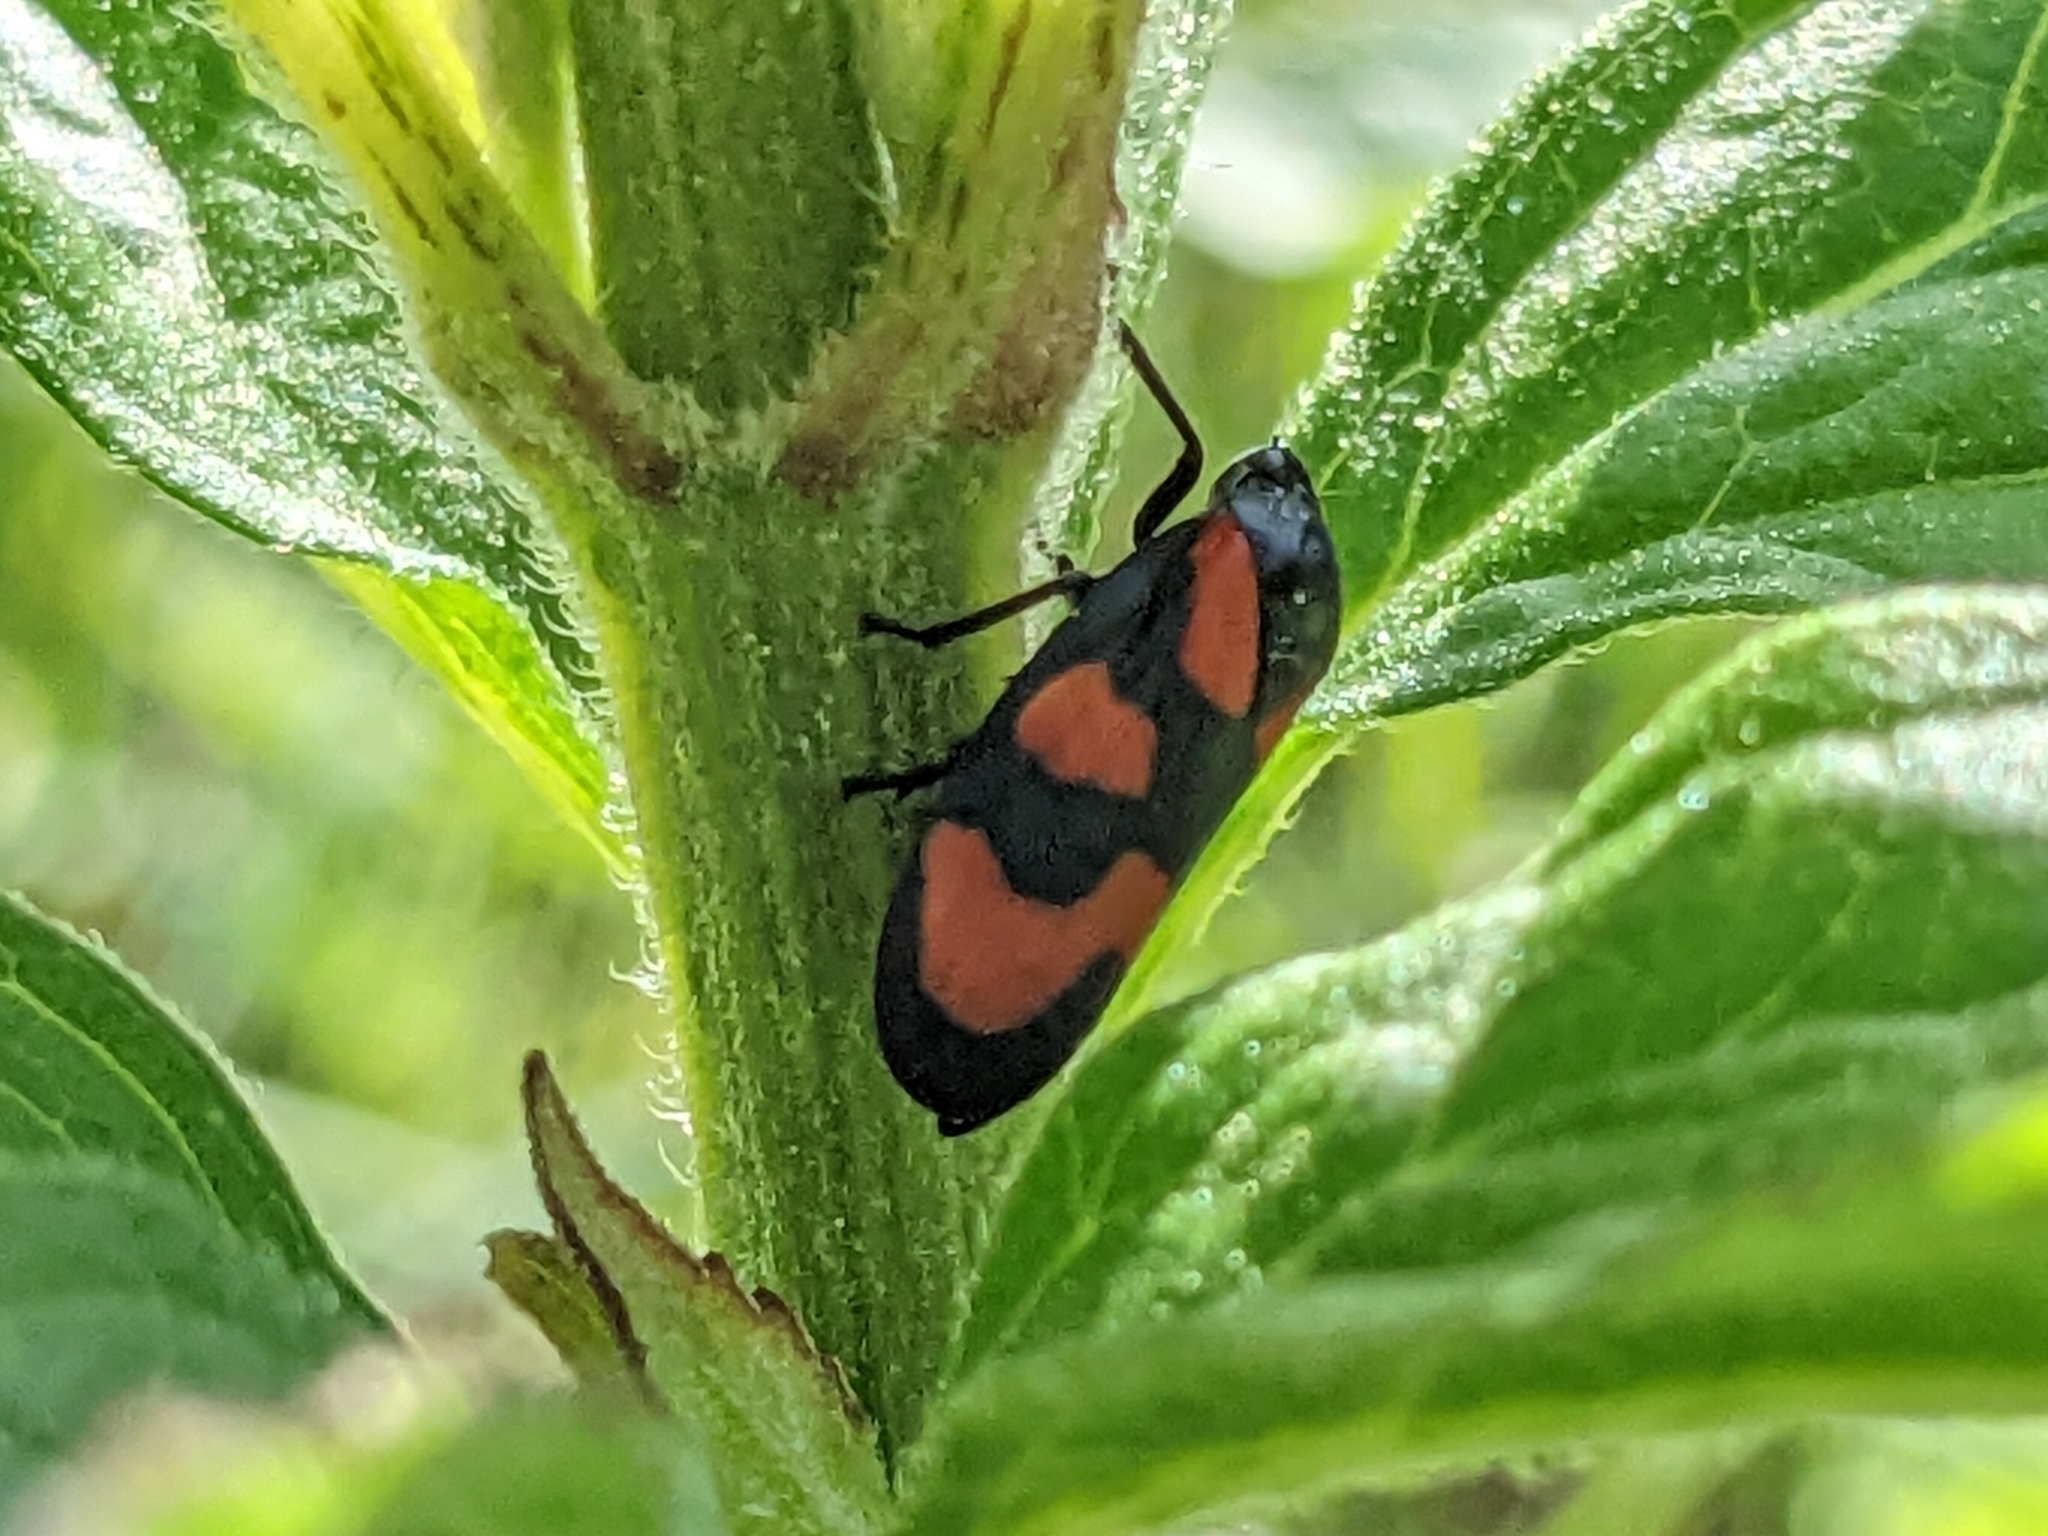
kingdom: Animalia
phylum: Arthropoda
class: Insecta
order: Hemiptera
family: Cercopidae
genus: Cercopis
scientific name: Cercopis vulnerata
